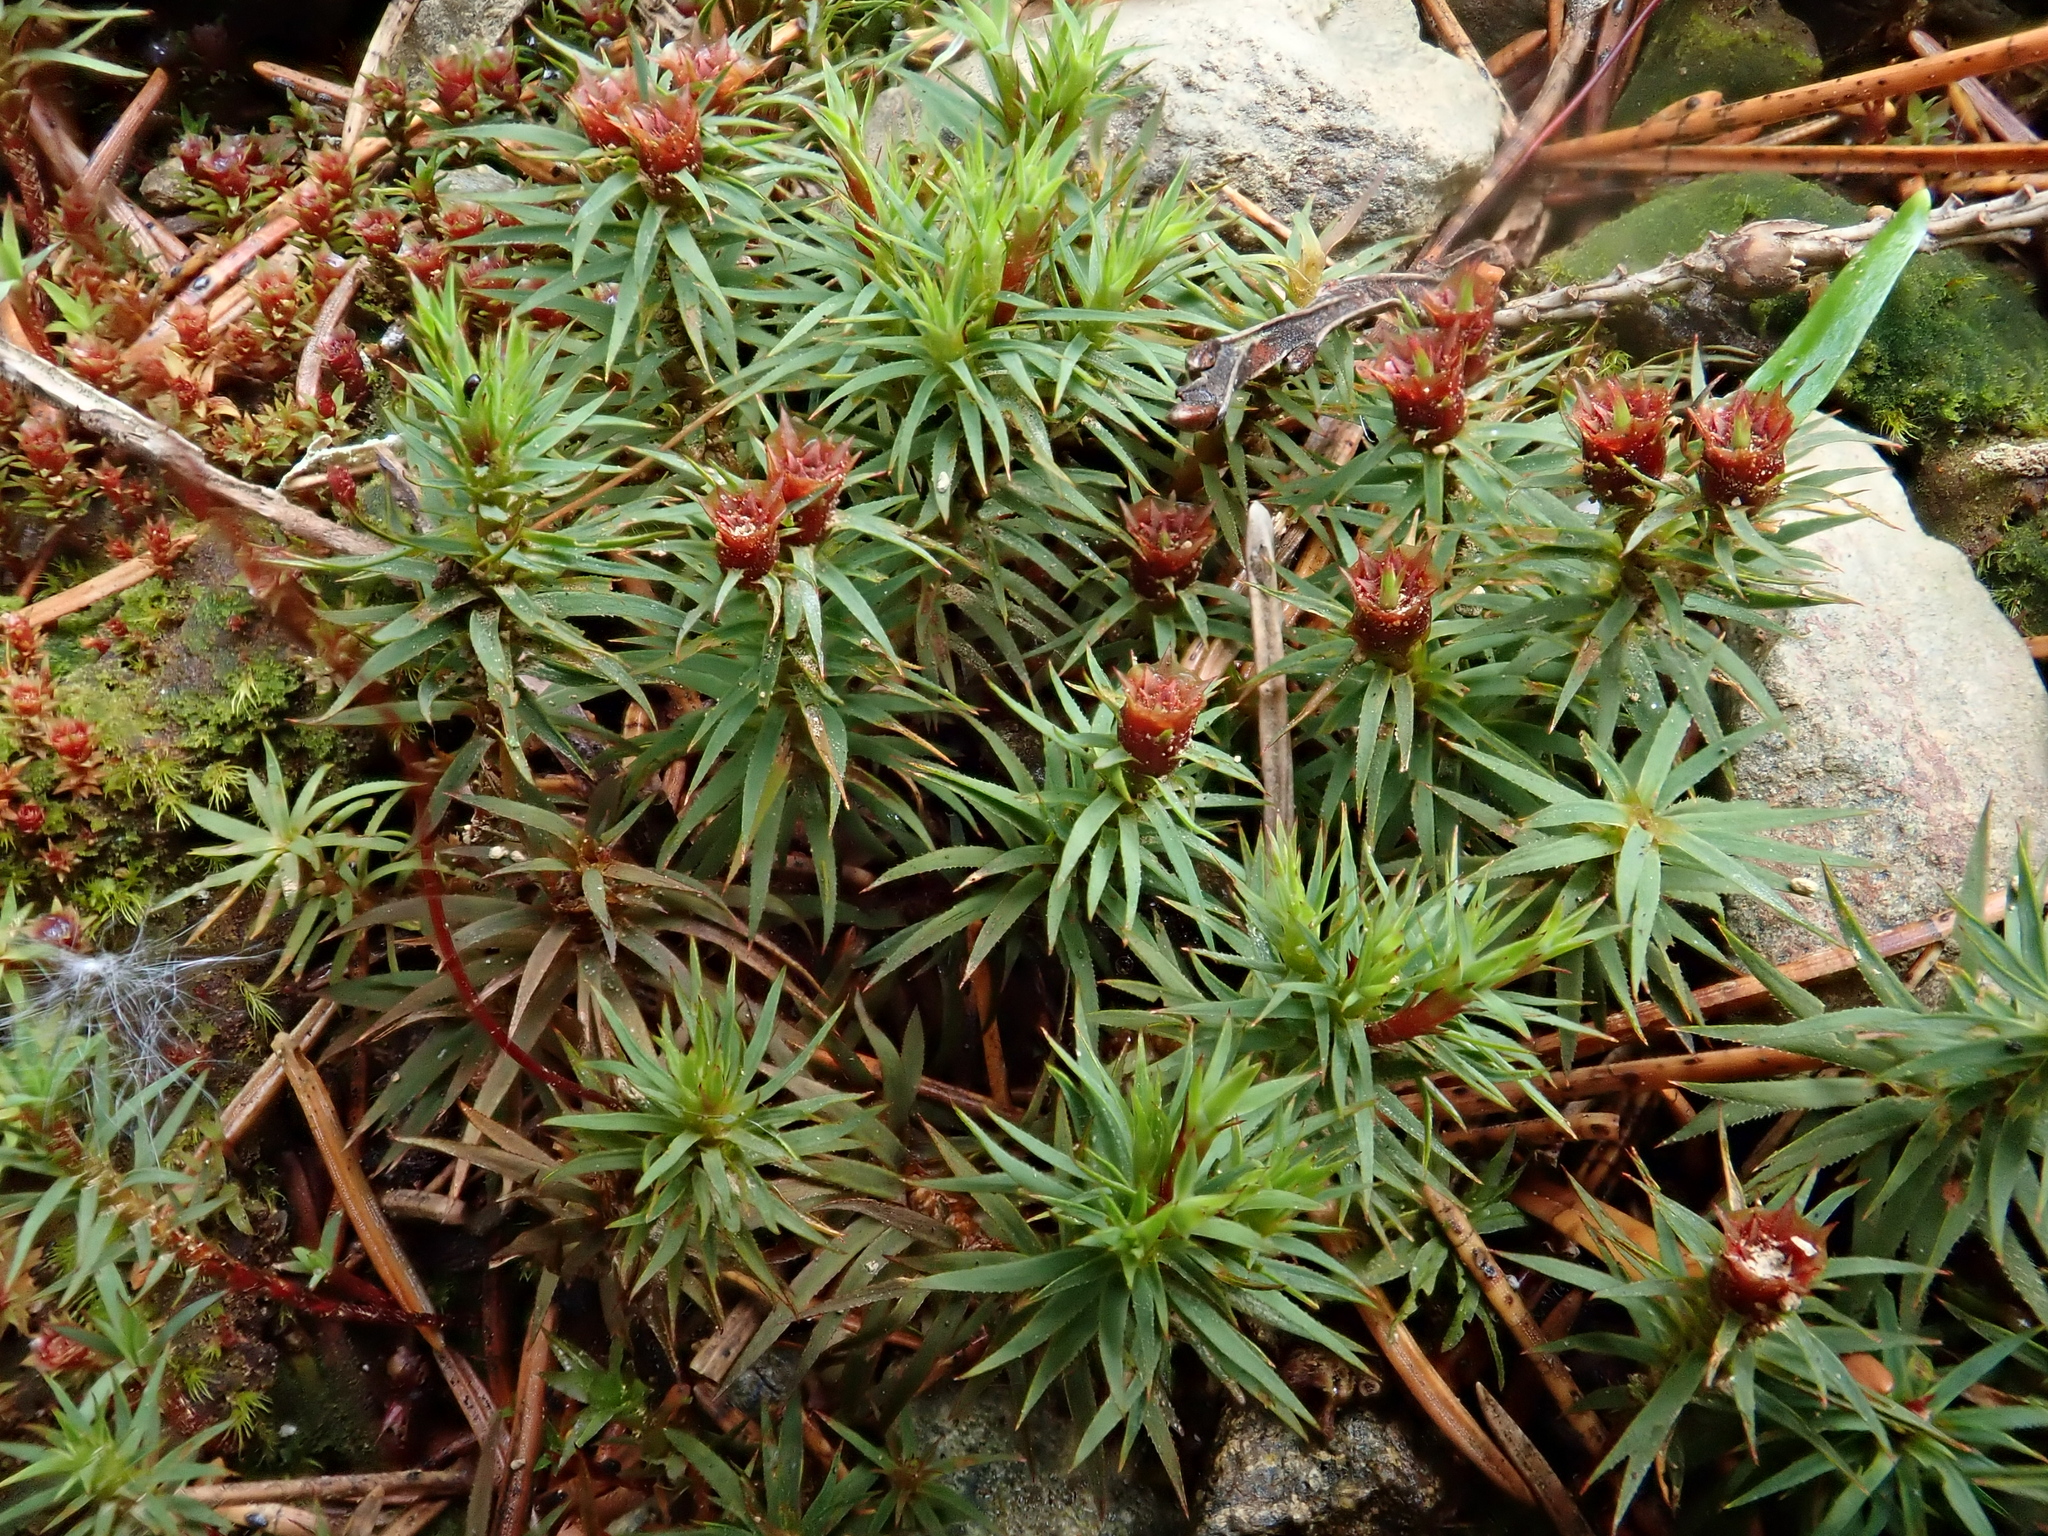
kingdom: Plantae
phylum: Bryophyta
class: Polytrichopsida
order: Polytrichales
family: Polytrichaceae
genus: Pogonatum
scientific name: Pogonatum urnigerum
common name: Urn hair moss
